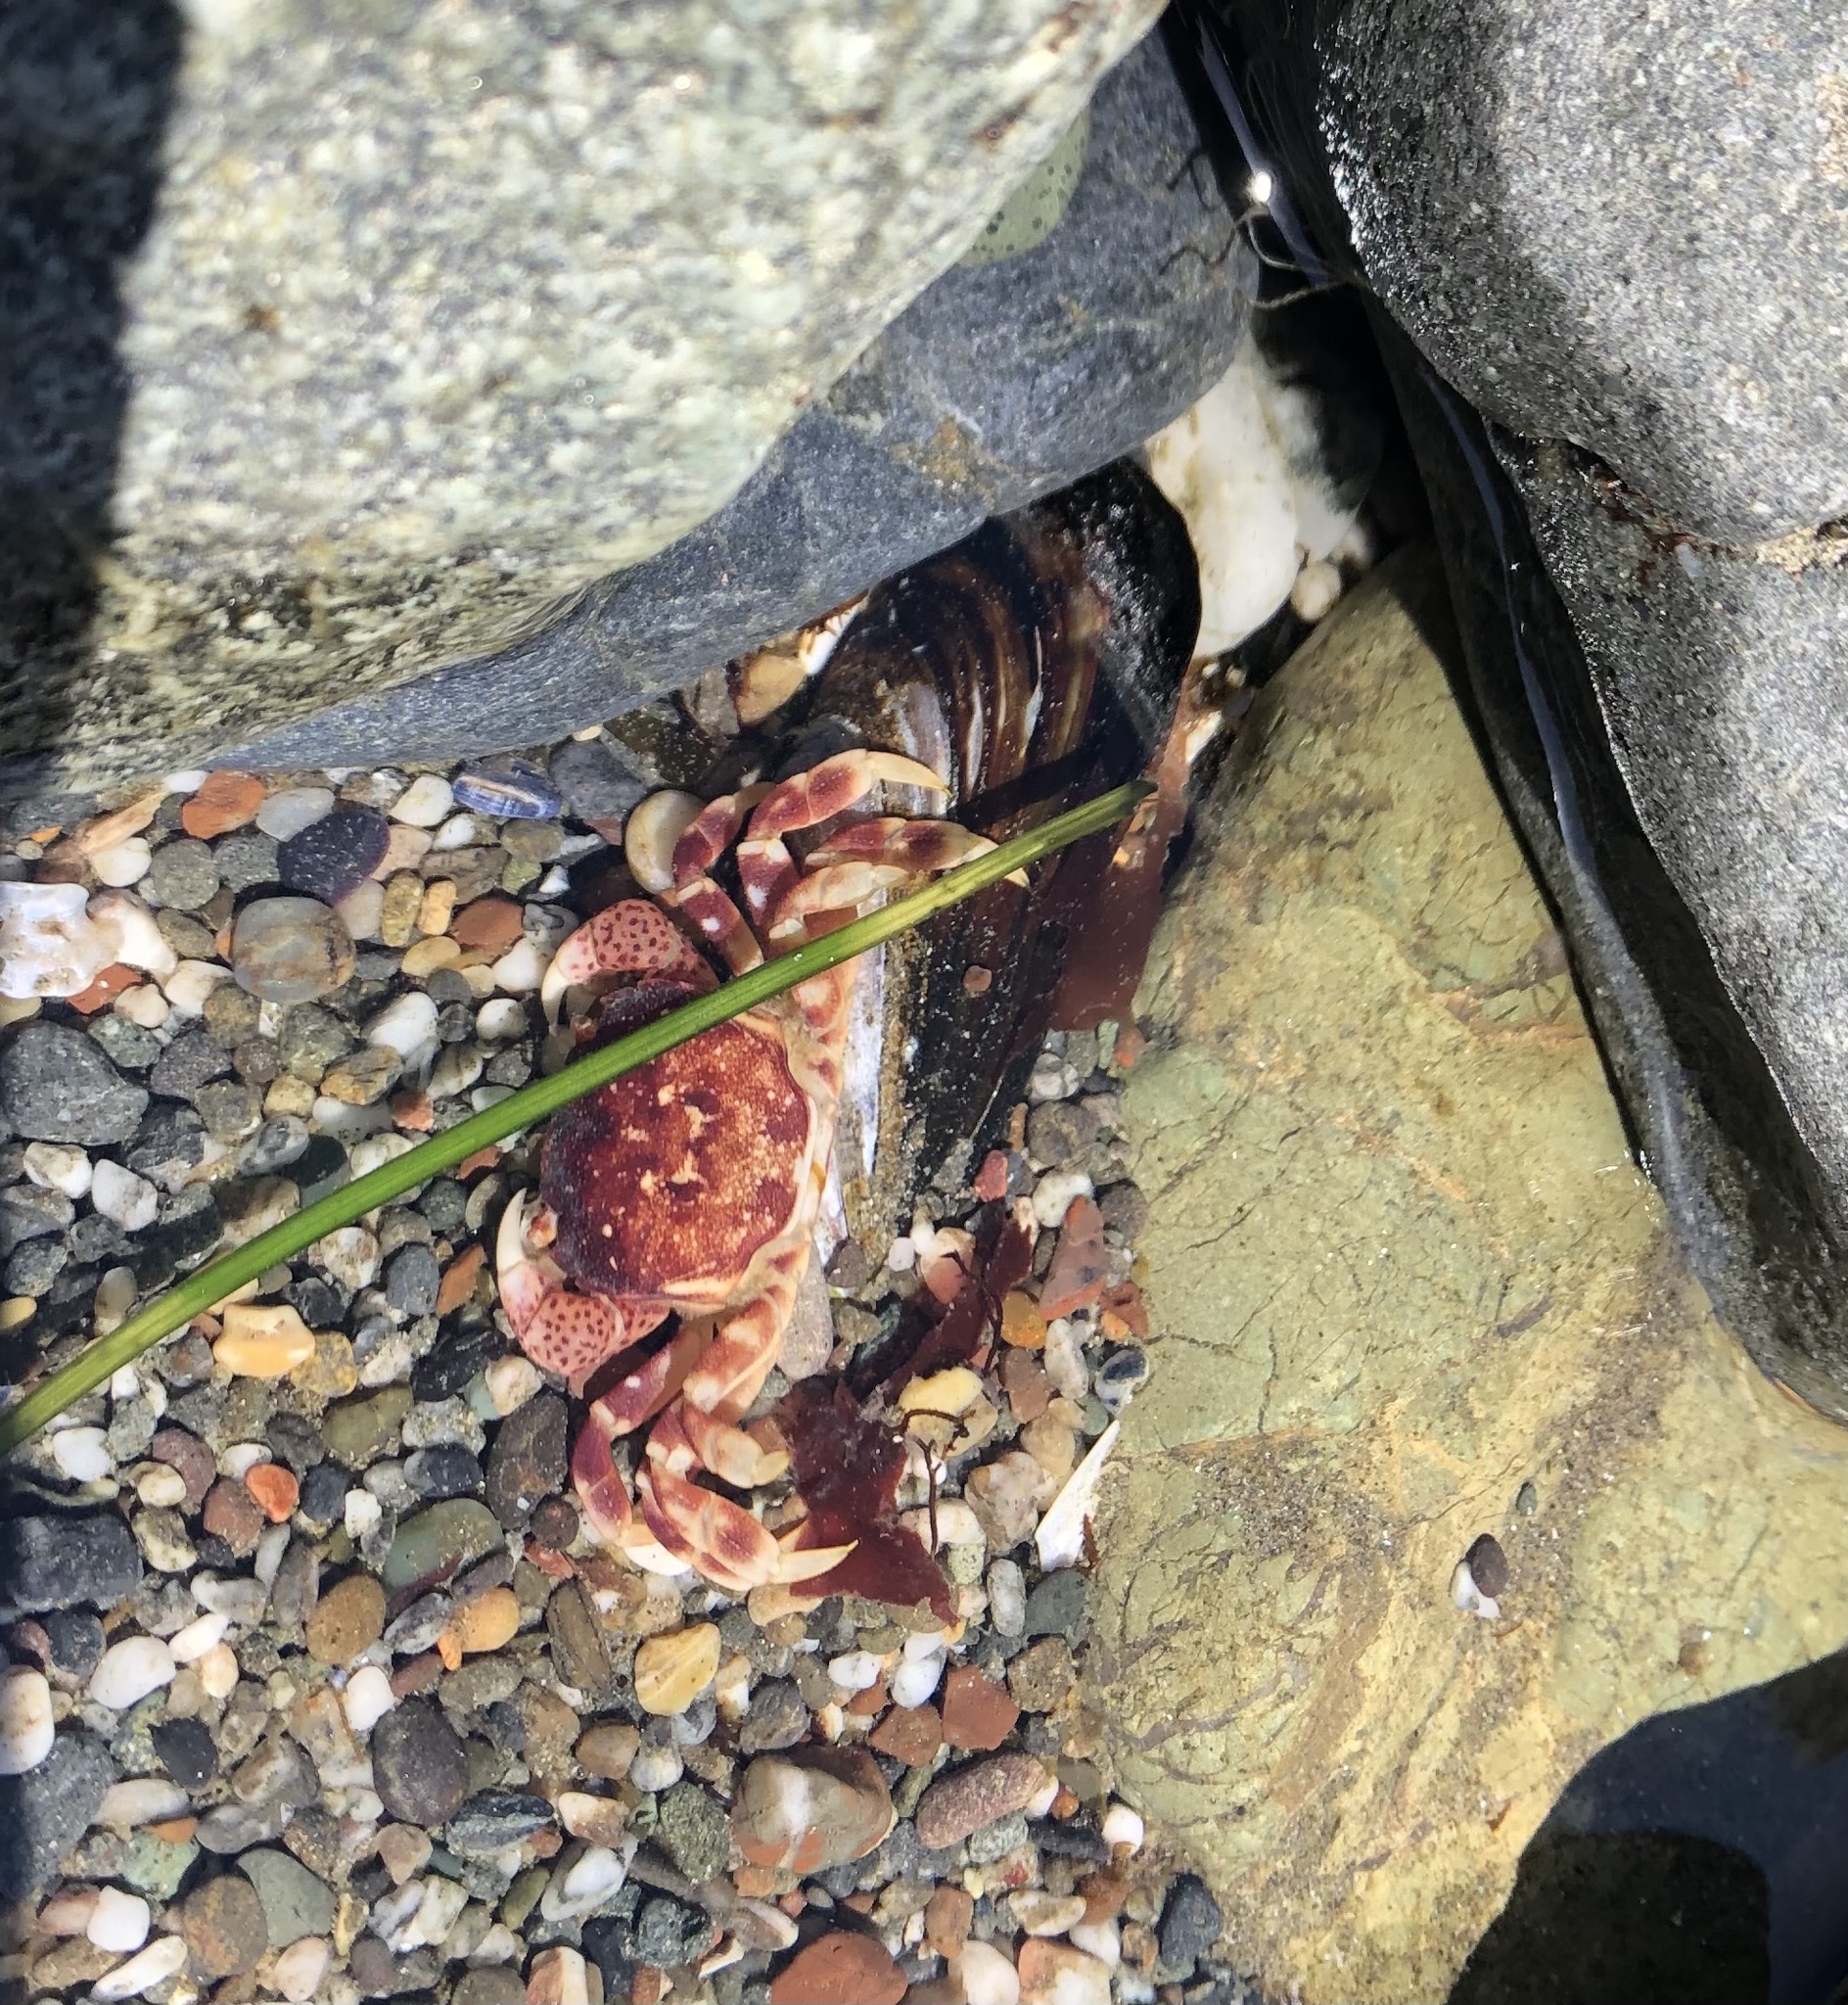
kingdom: Animalia
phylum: Arthropoda
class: Malacostraca
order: Decapoda
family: Varunidae
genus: Hemigrapsus
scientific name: Hemigrapsus nudus
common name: Purple shore crab
